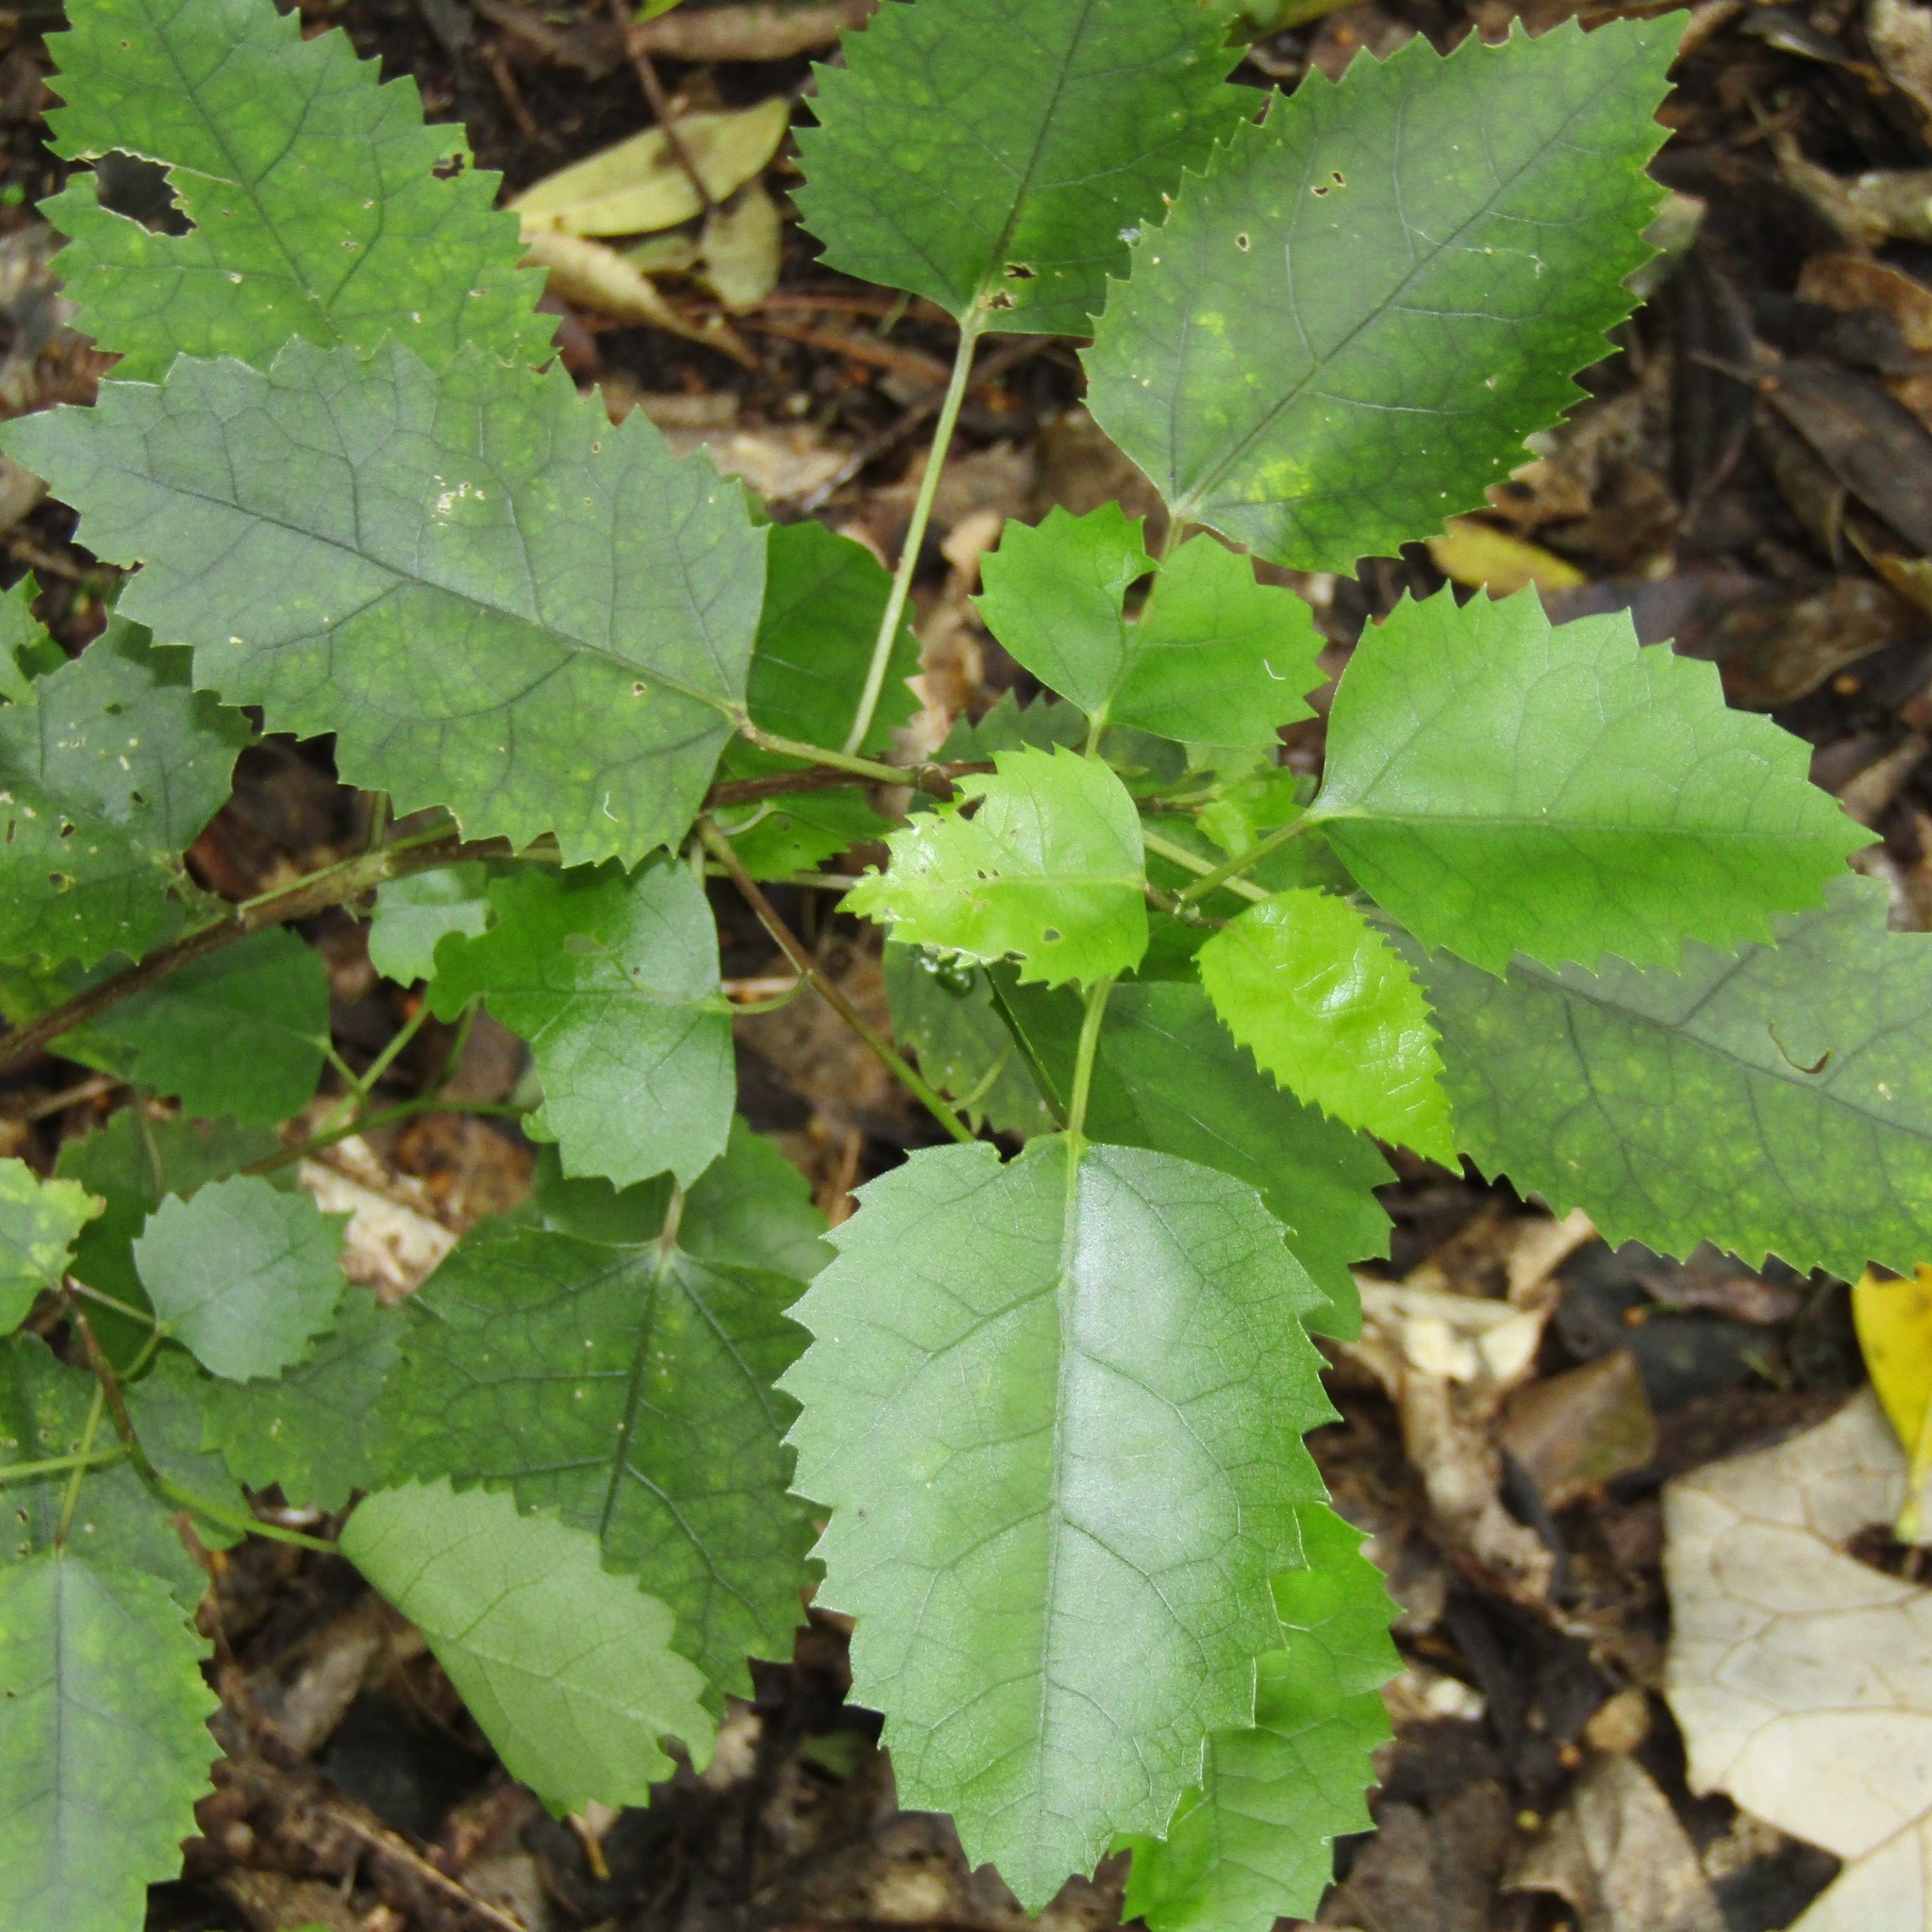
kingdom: Plantae
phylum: Tracheophyta
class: Magnoliopsida
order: Malvales
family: Malvaceae
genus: Hoheria
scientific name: Hoheria populnea
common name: Lacebark
